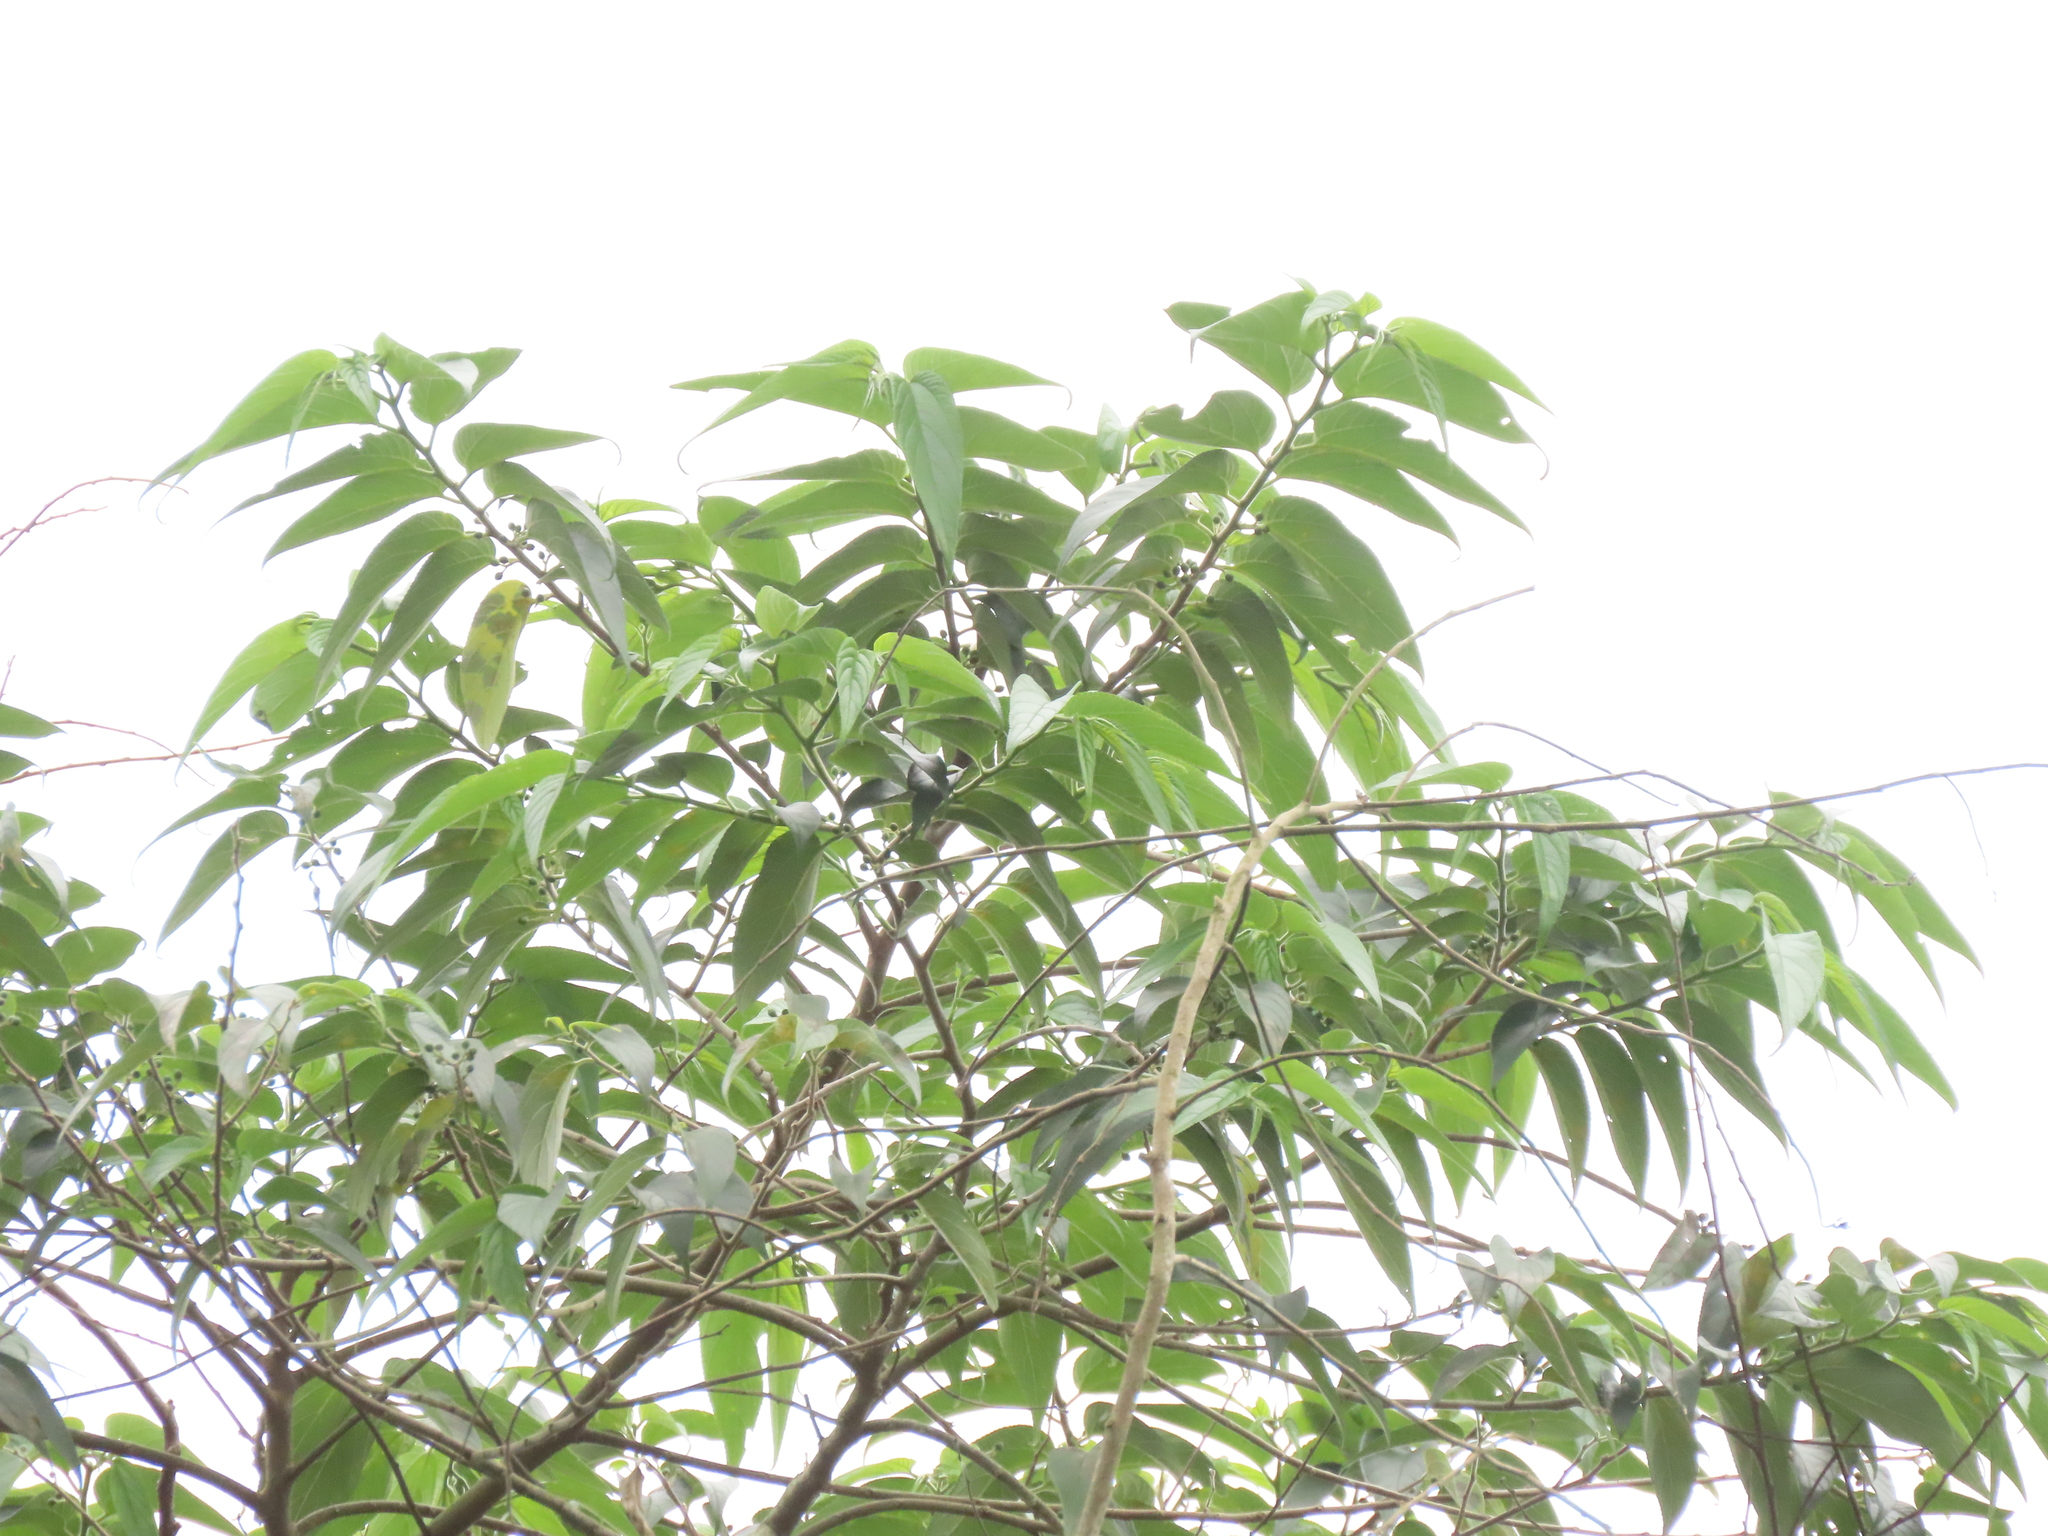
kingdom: Plantae
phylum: Tracheophyta
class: Magnoliopsida
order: Rosales
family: Cannabaceae
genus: Trema
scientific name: Trema orientale
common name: Indian charcoal tree
